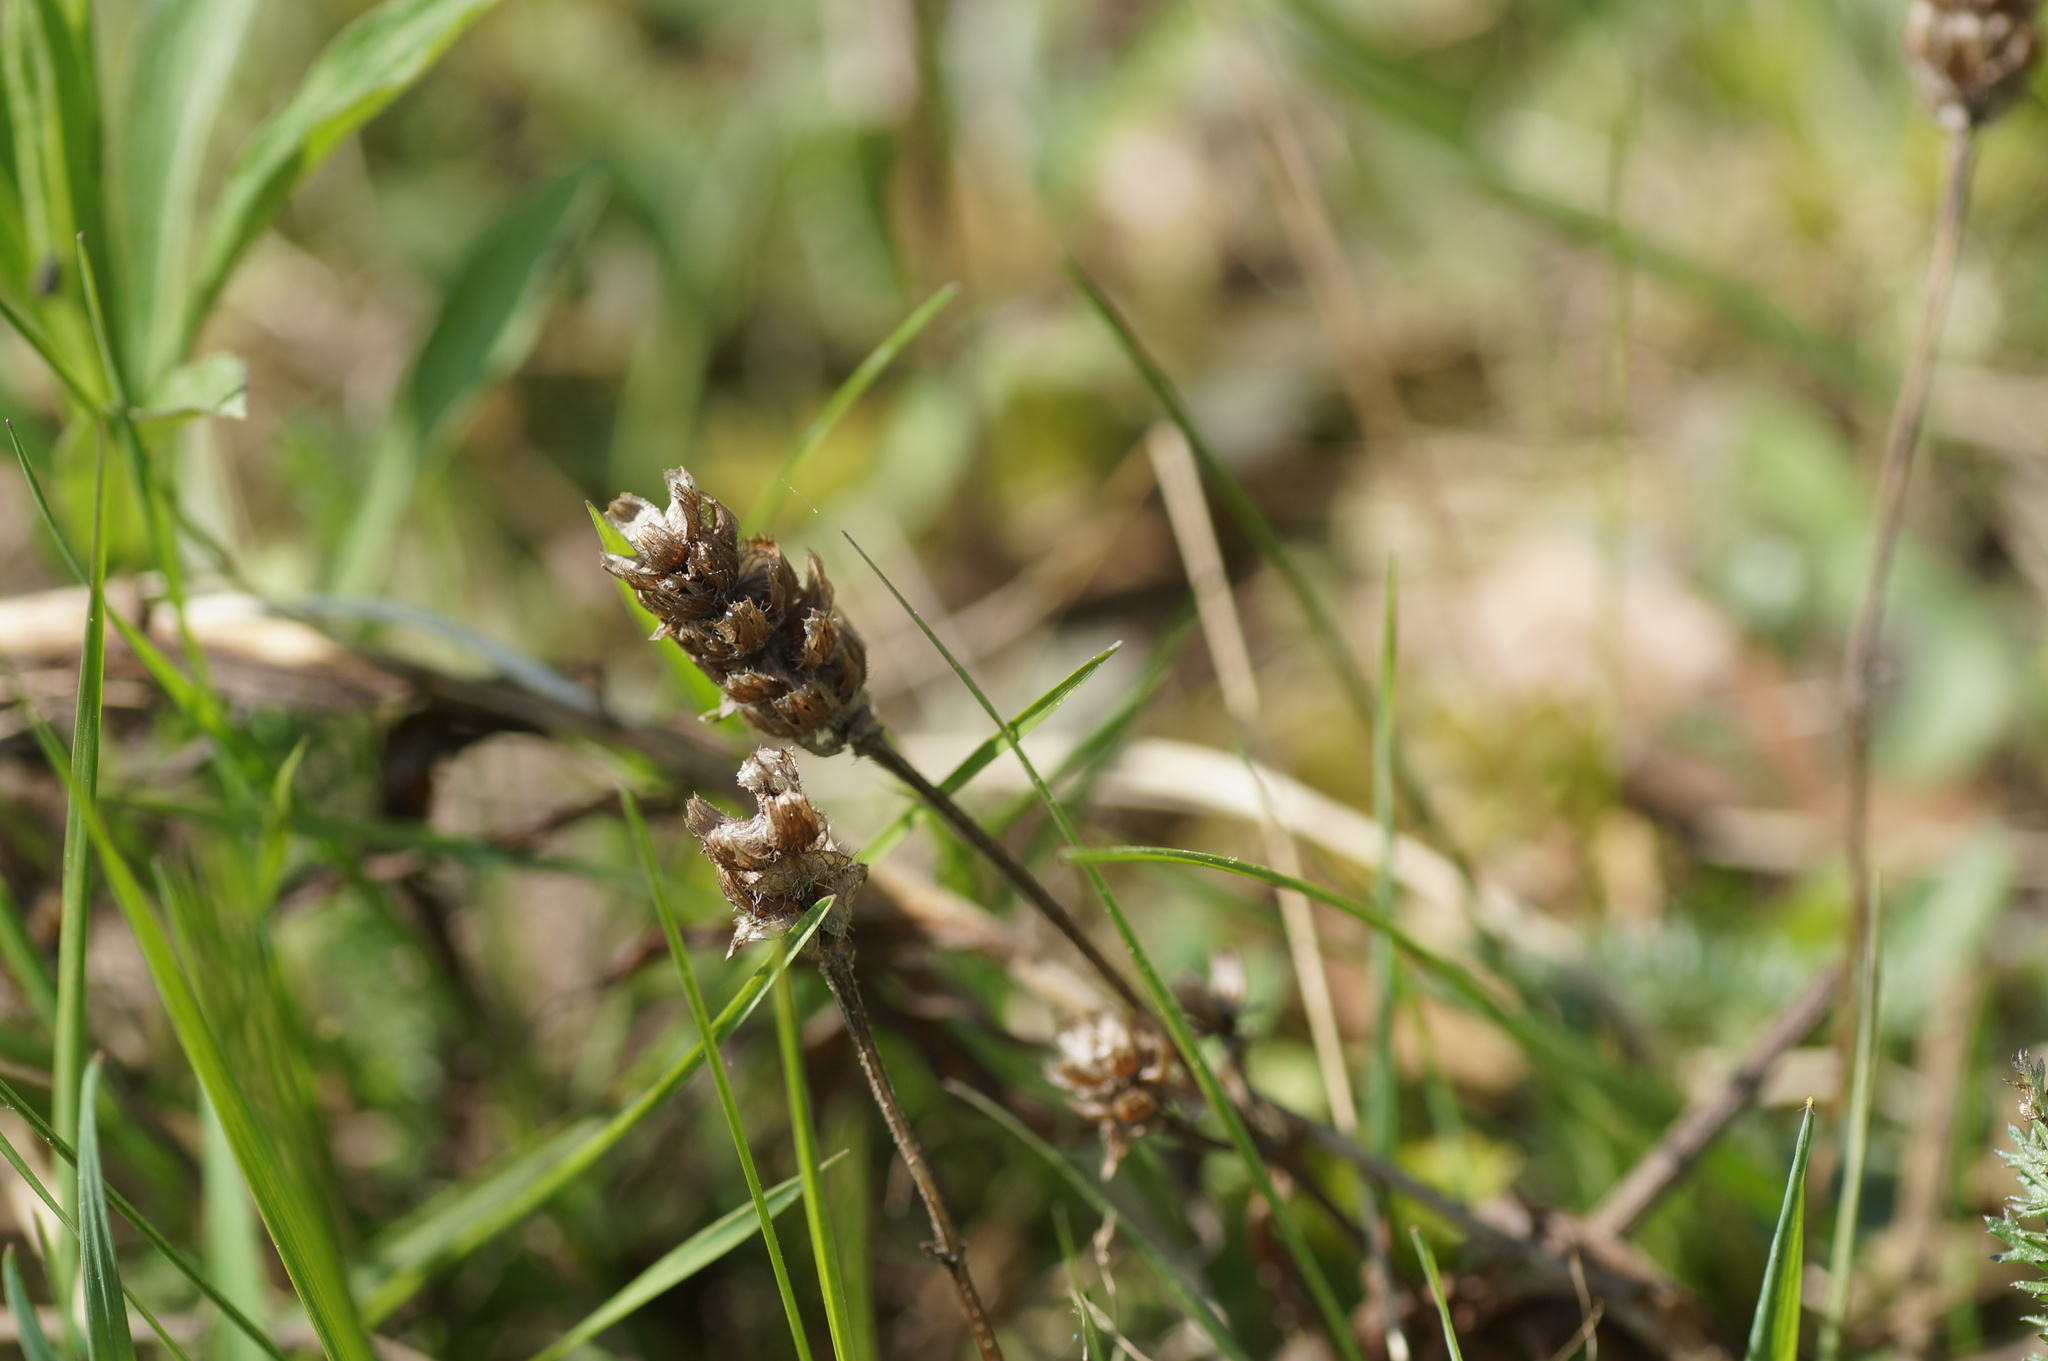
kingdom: Plantae
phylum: Tracheophyta
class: Magnoliopsida
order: Lamiales
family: Lamiaceae
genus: Prunella
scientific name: Prunella vulgaris
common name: Heal-all
